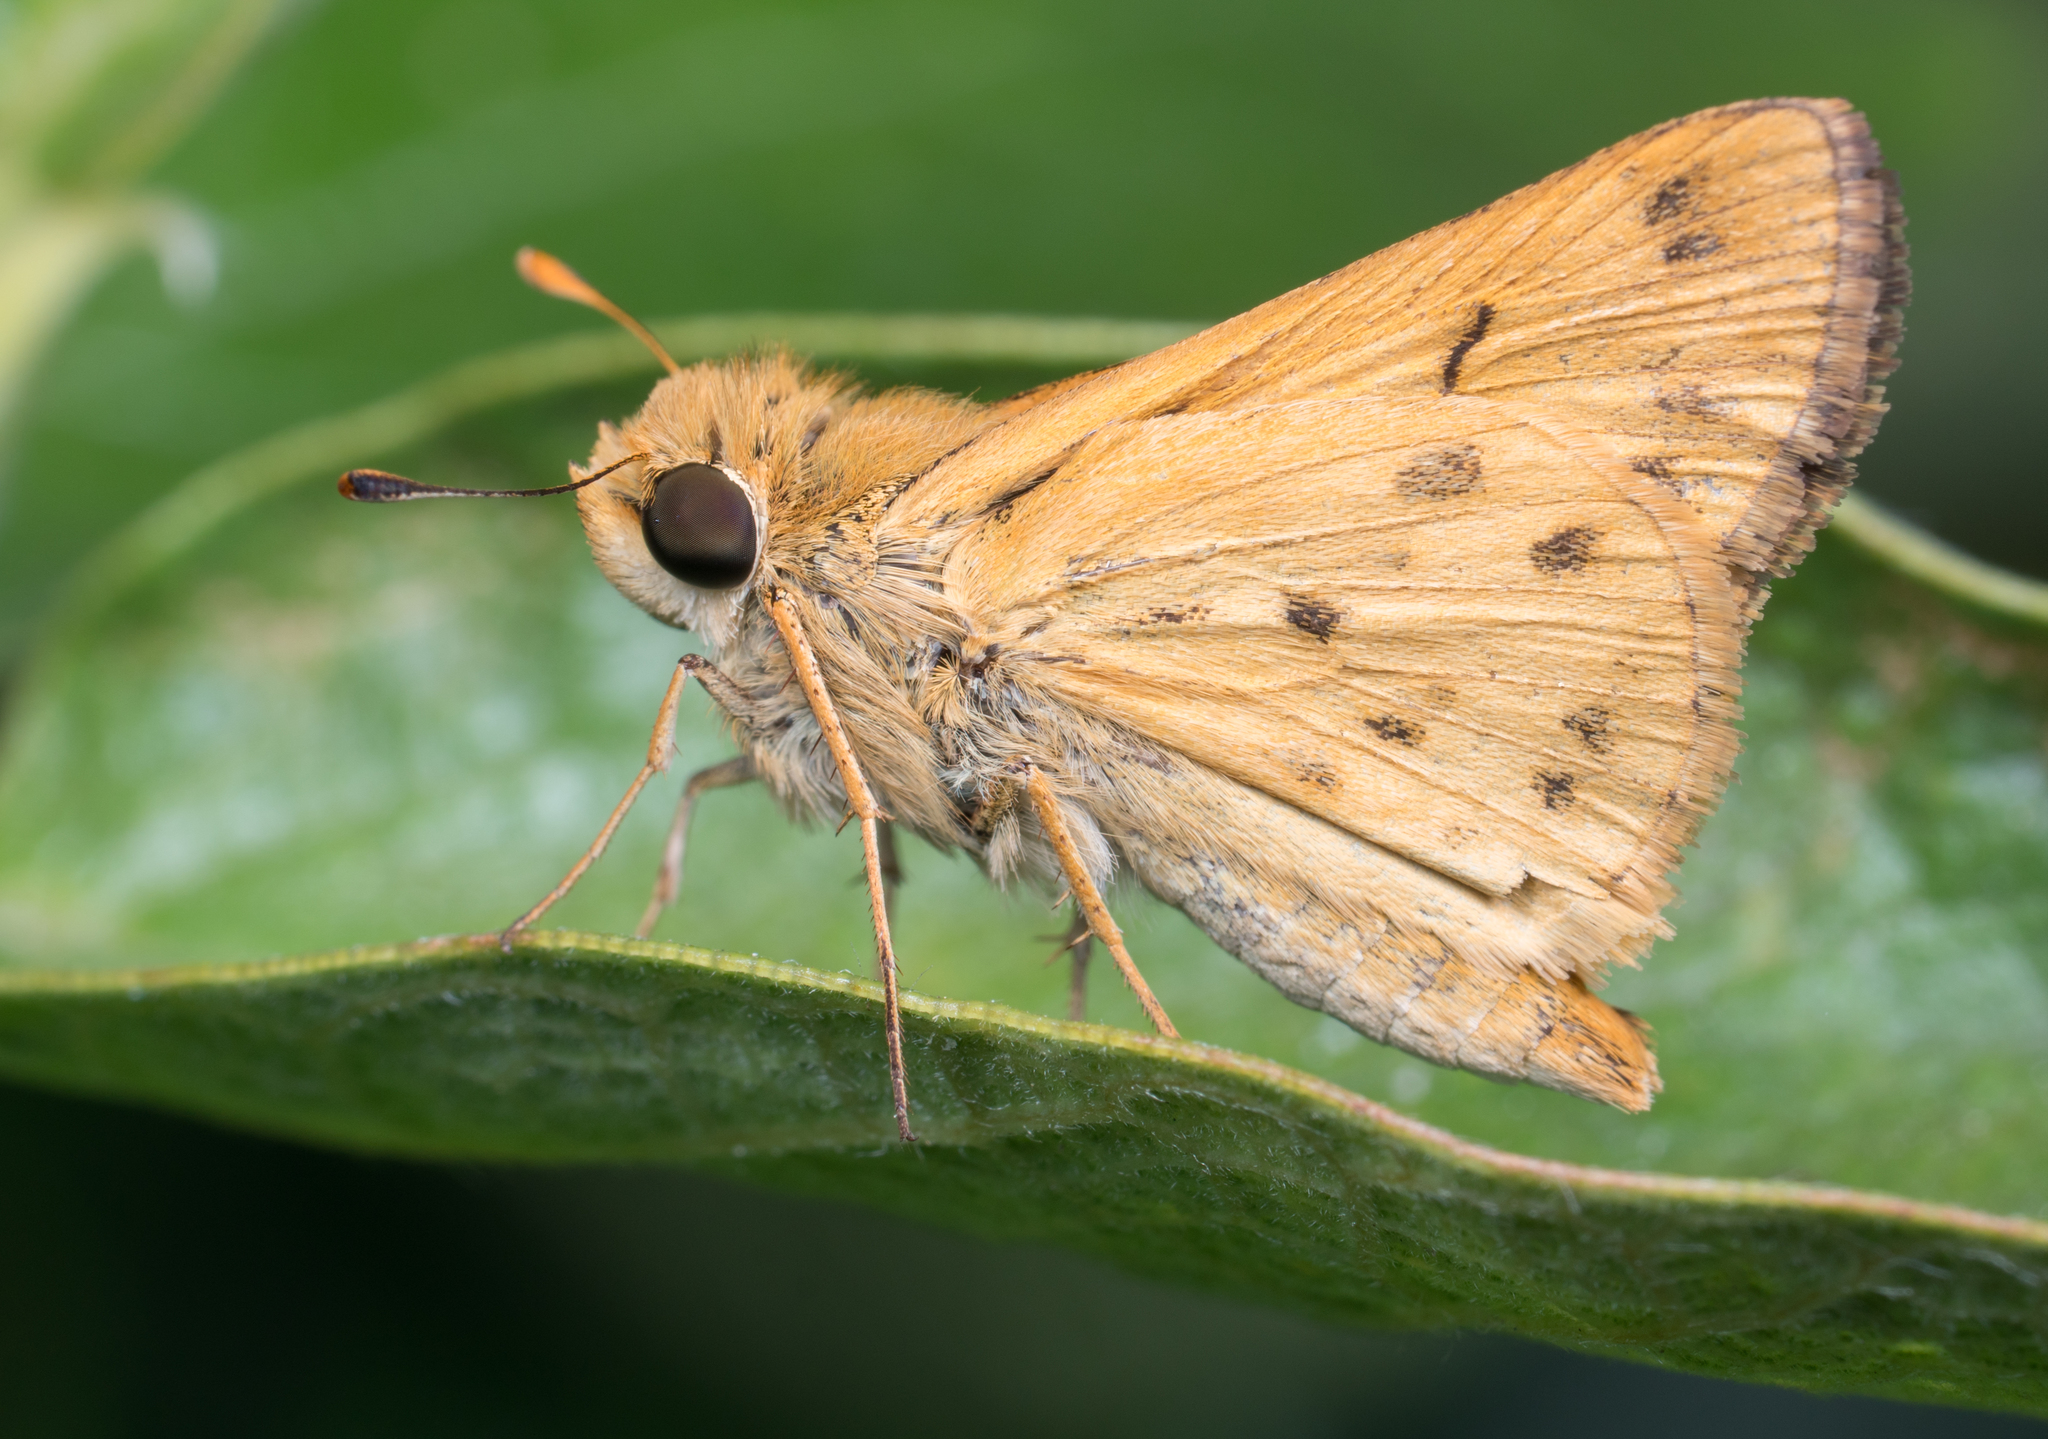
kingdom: Animalia
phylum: Arthropoda
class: Insecta
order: Lepidoptera
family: Hesperiidae
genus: Hylephila
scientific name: Hylephila phyleus
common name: Fiery skipper
